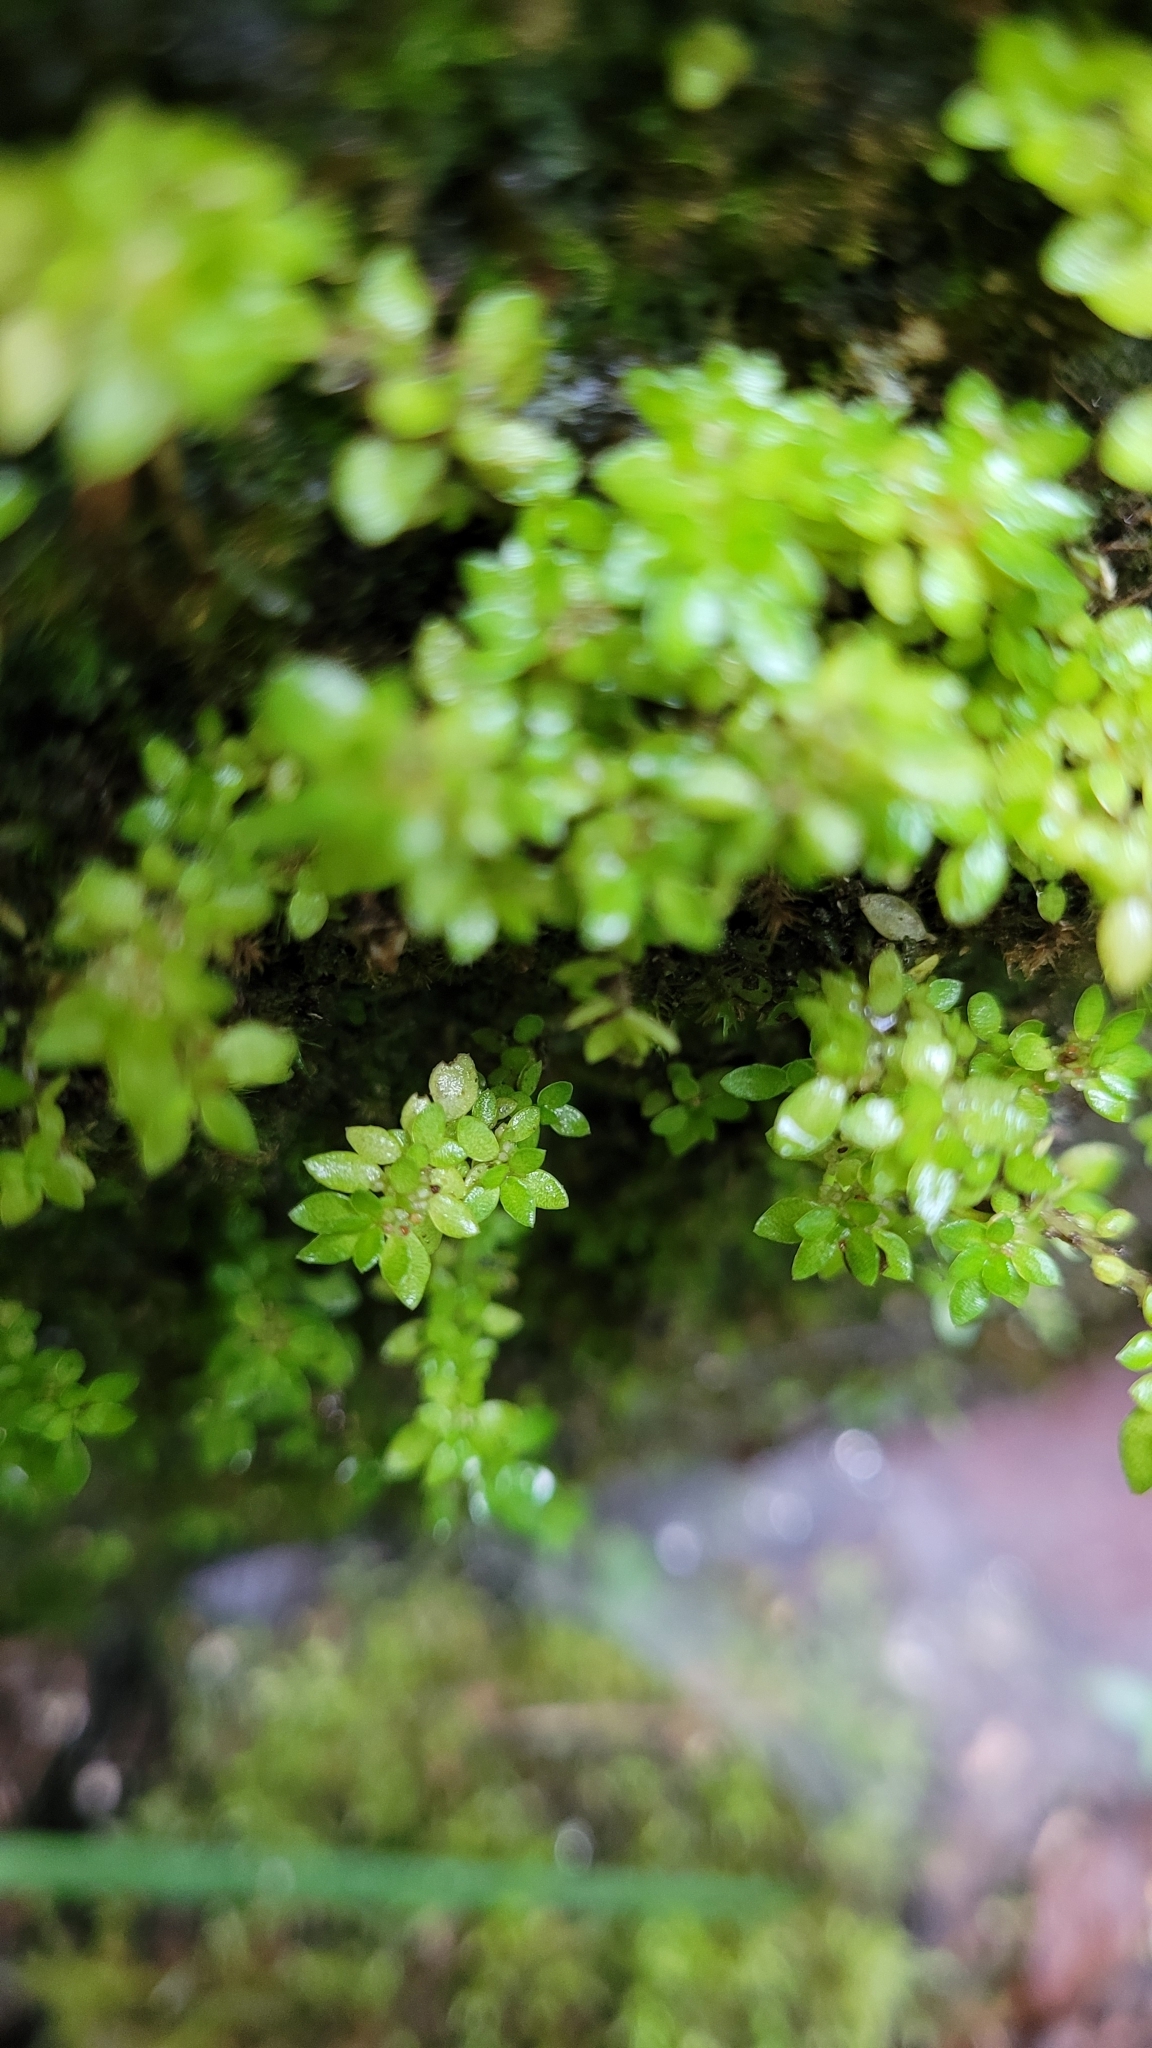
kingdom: Plantae
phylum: Tracheophyta
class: Magnoliopsida
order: Rosales
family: Urticaceae
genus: Pilea
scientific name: Pilea microphylla
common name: Artillery-plant
